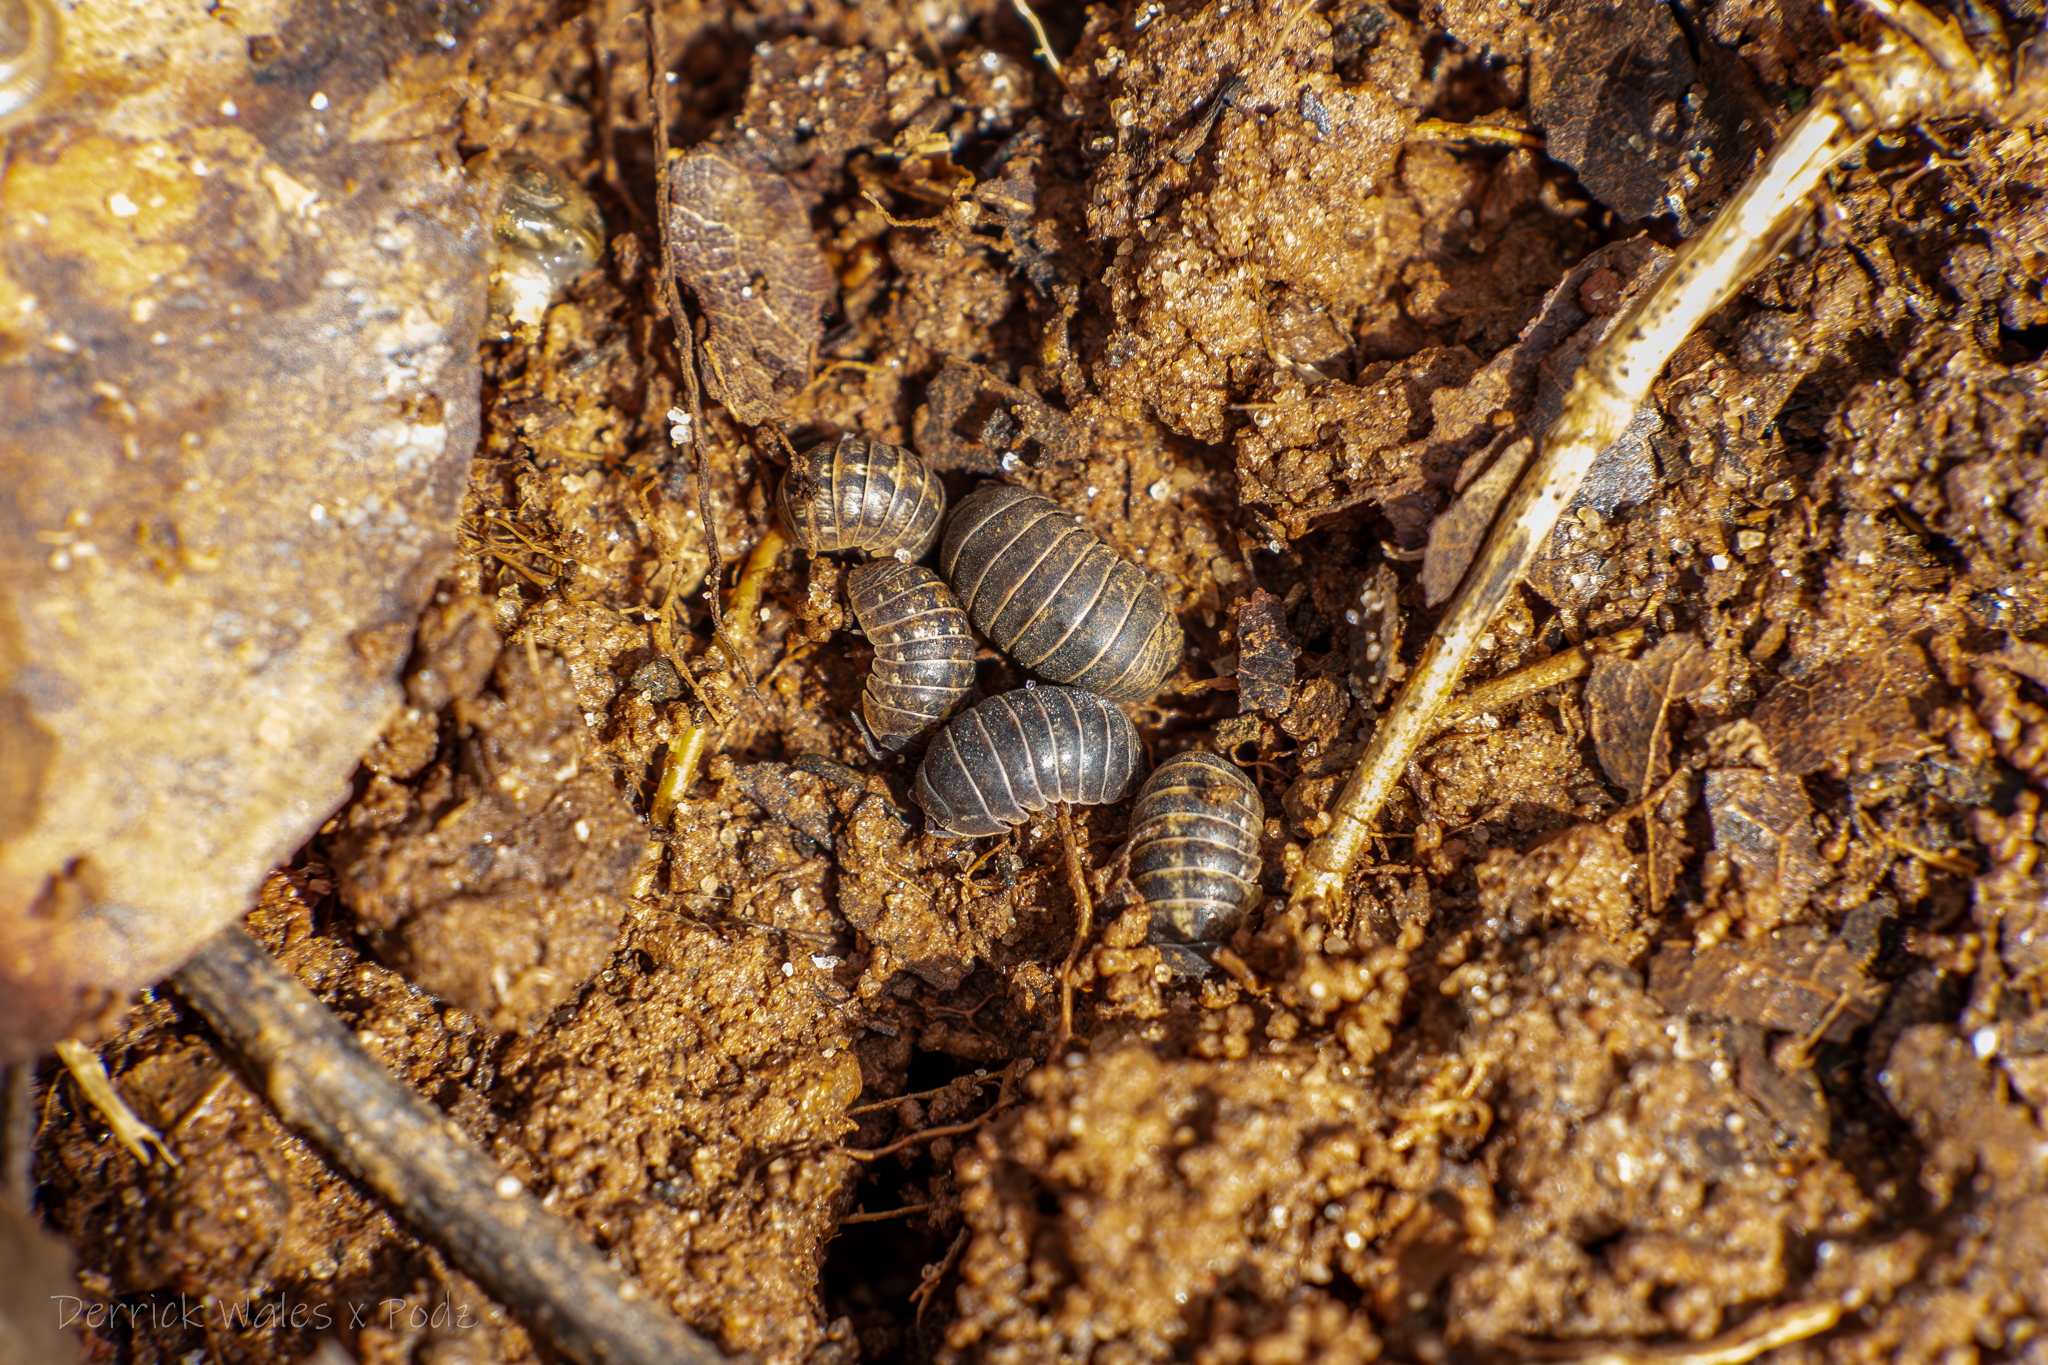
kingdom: Animalia
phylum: Arthropoda
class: Malacostraca
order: Isopoda
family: Armadillidiidae
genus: Armadillidium
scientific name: Armadillidium vulgare
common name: Common pill woodlouse
